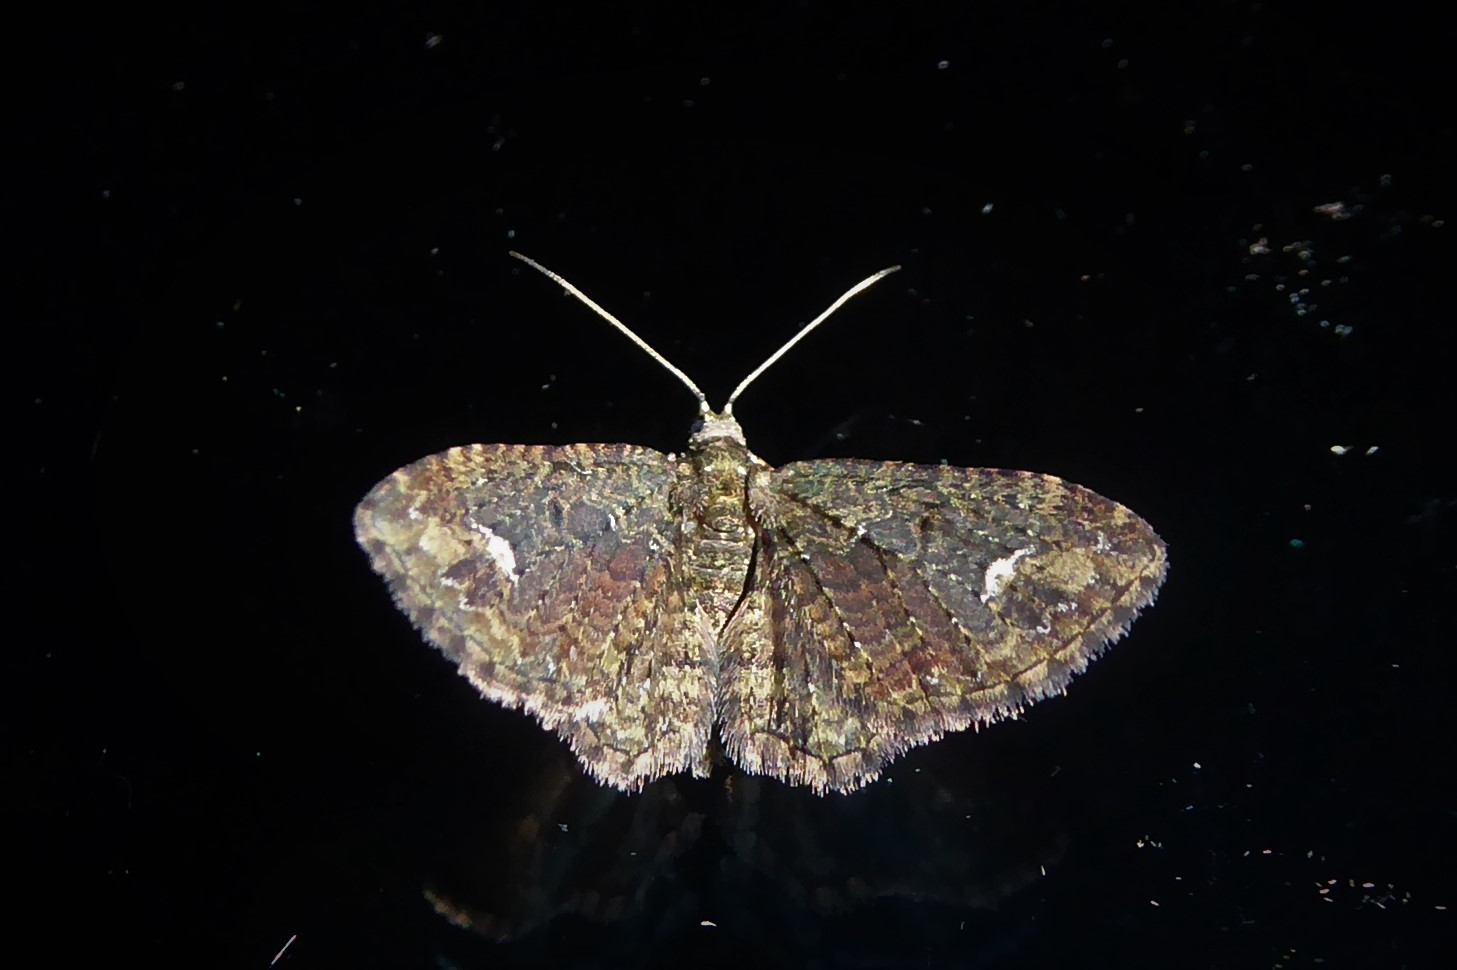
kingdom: Animalia
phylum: Arthropoda
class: Insecta
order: Lepidoptera
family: Geometridae
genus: Pasiphilodes
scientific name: Pasiphilodes testulata
